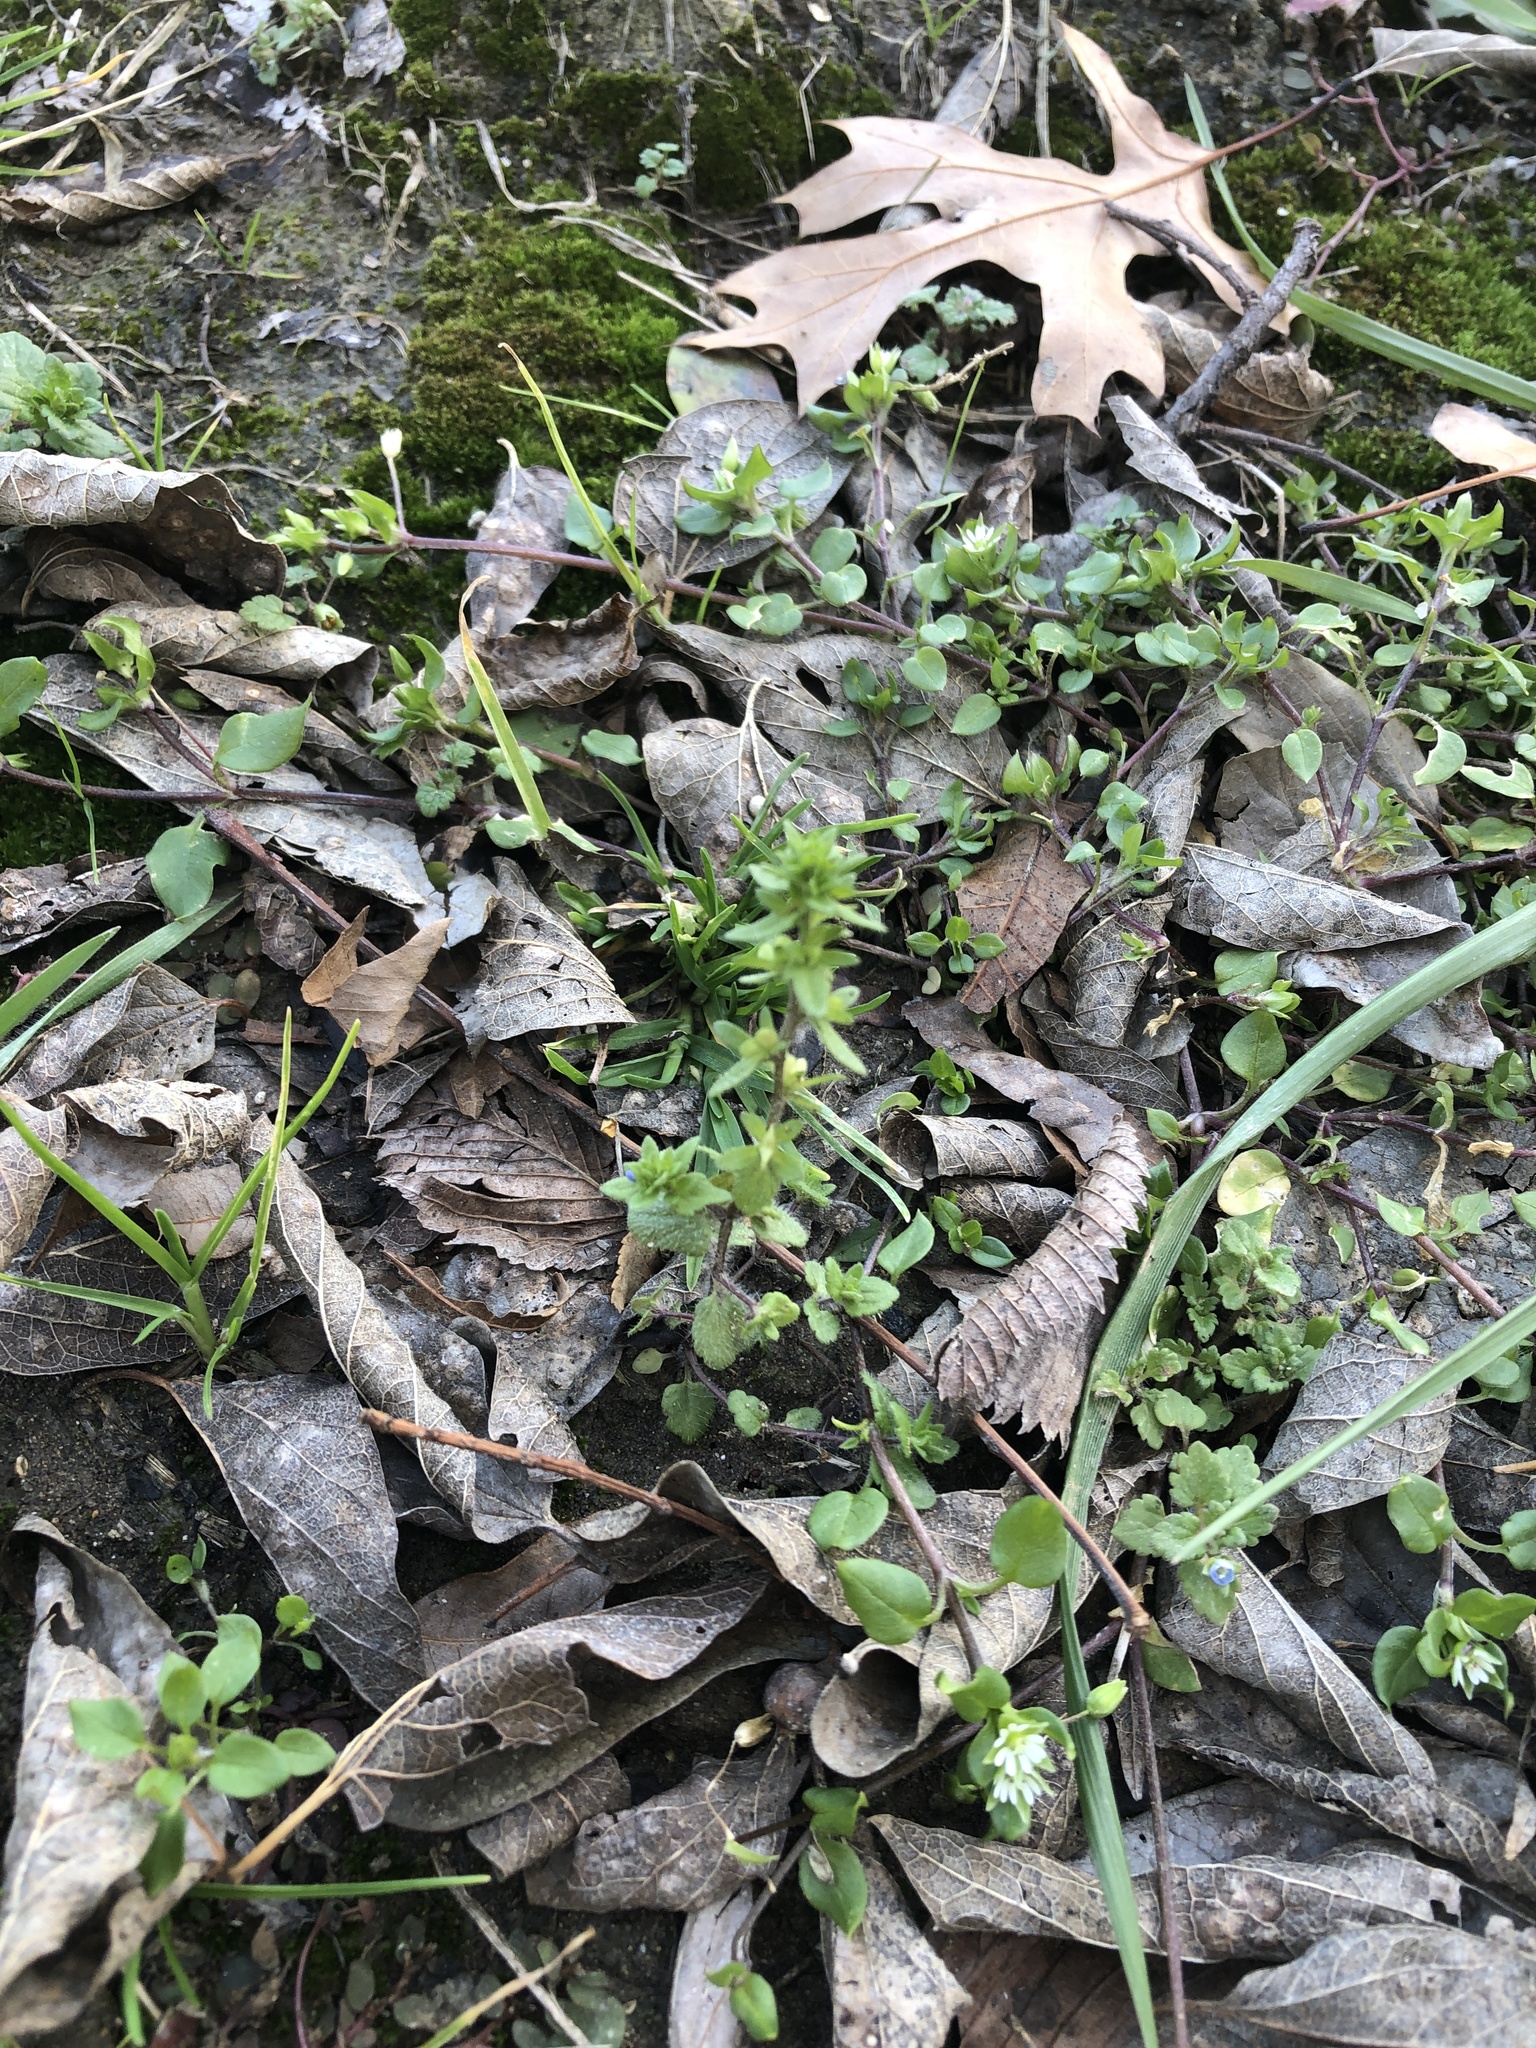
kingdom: Plantae
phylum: Tracheophyta
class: Magnoliopsida
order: Lamiales
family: Plantaginaceae
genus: Veronica
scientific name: Veronica arvensis
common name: Corn speedwell
